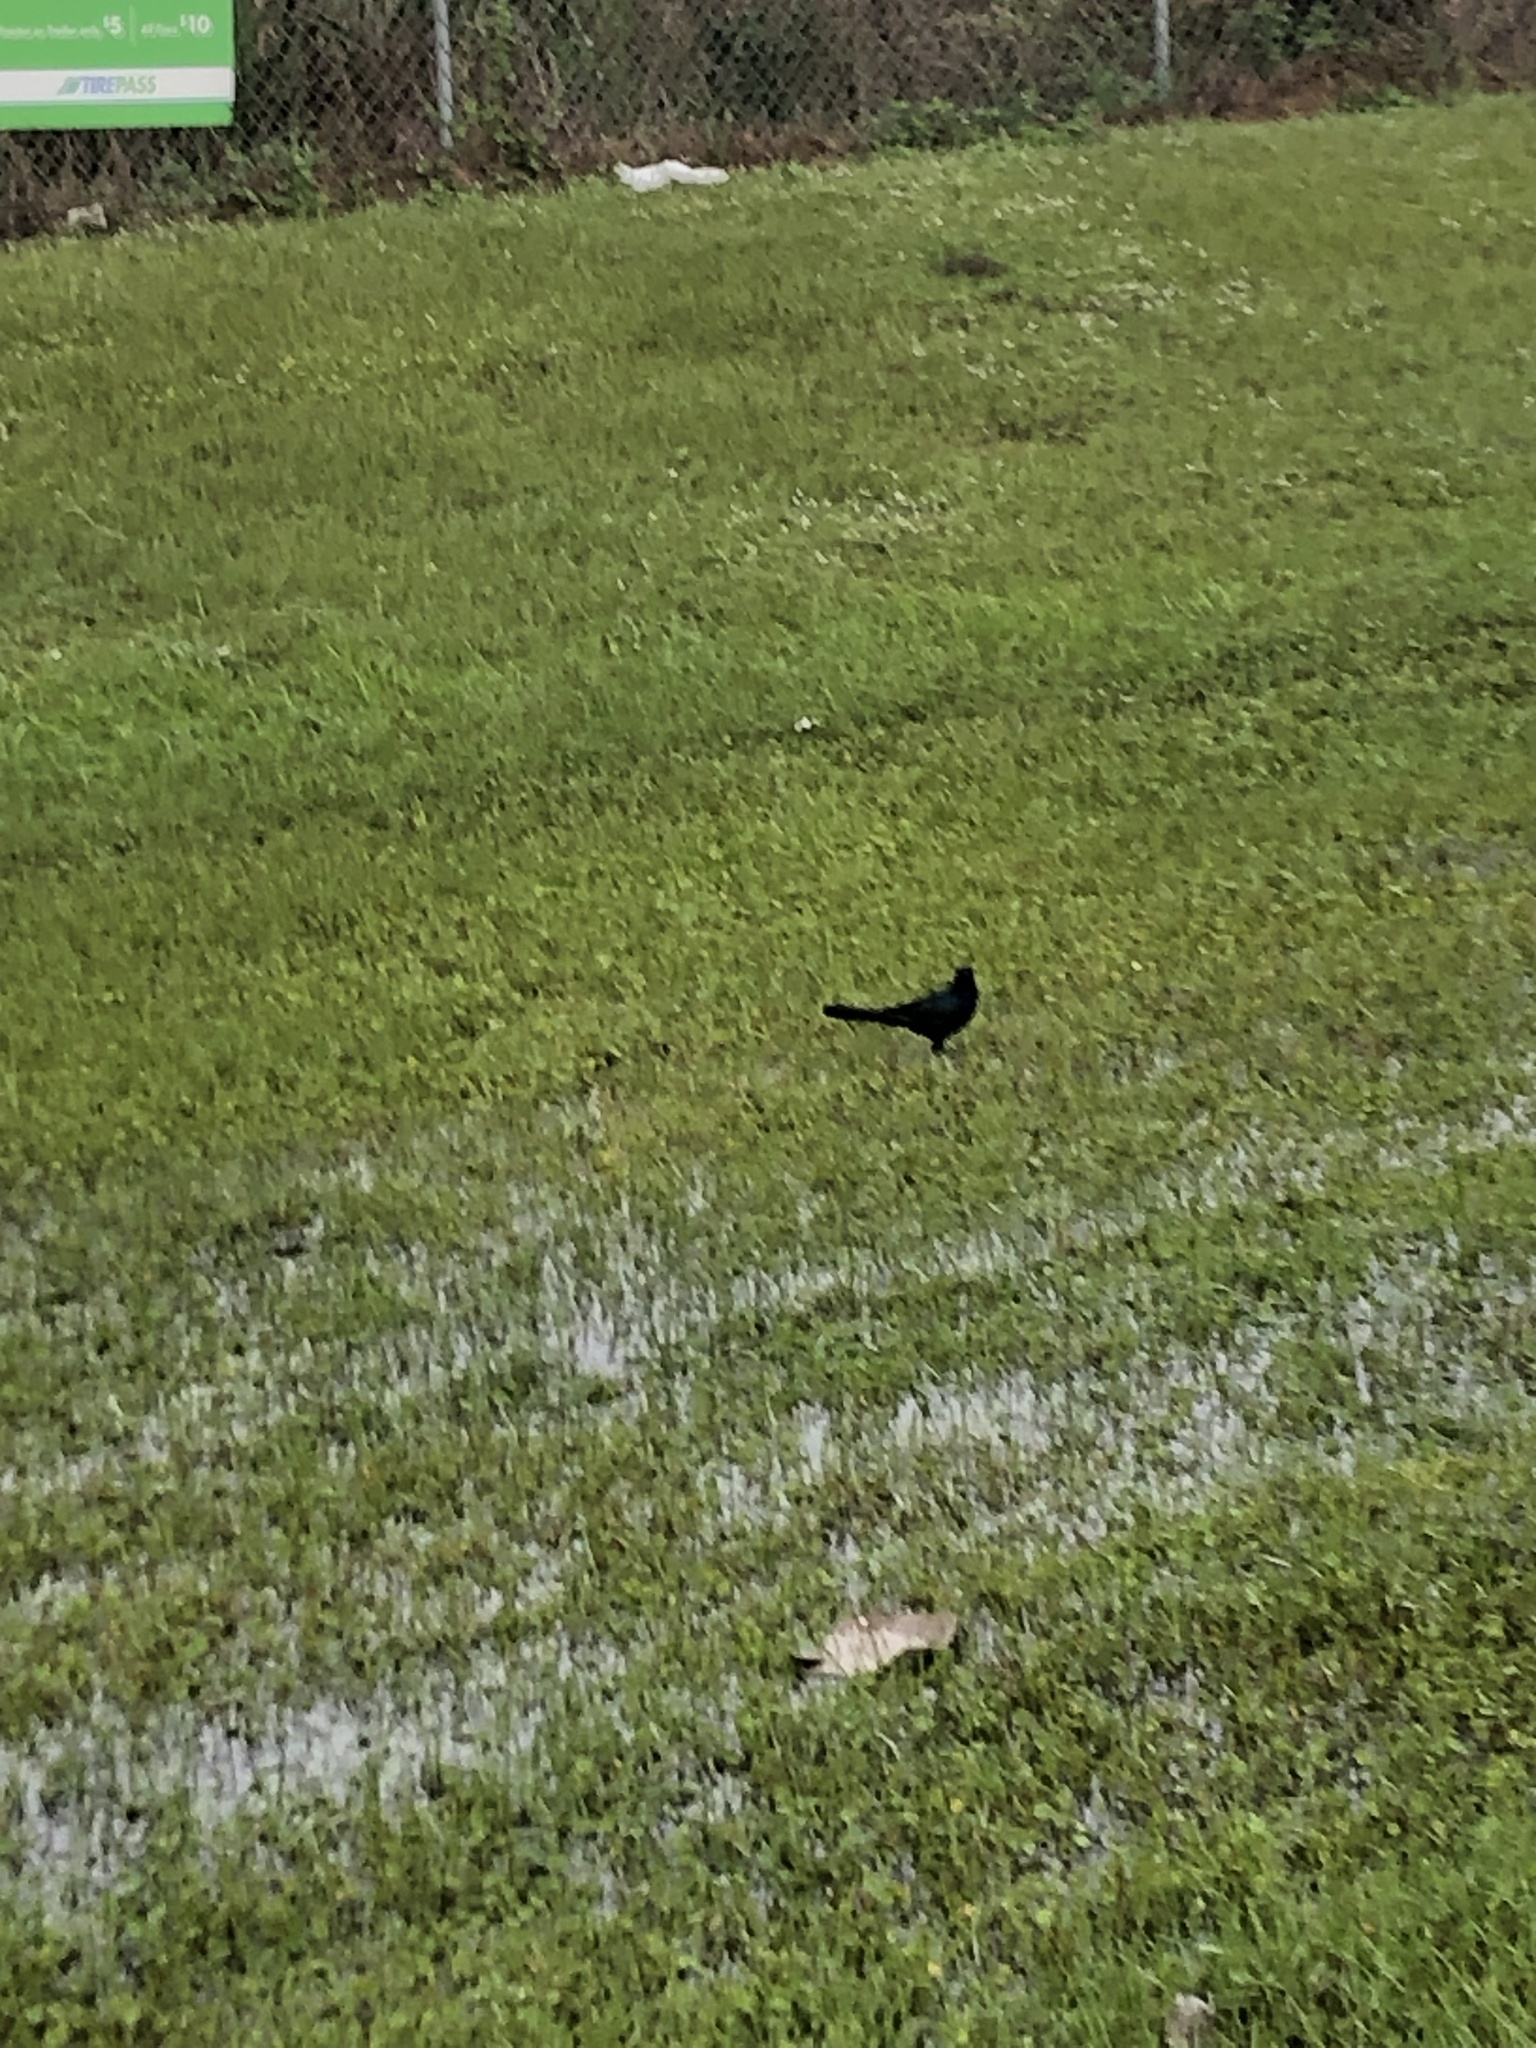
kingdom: Animalia
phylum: Chordata
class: Aves
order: Passeriformes
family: Icteridae
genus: Quiscalus
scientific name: Quiscalus major
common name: Boat-tailed grackle
